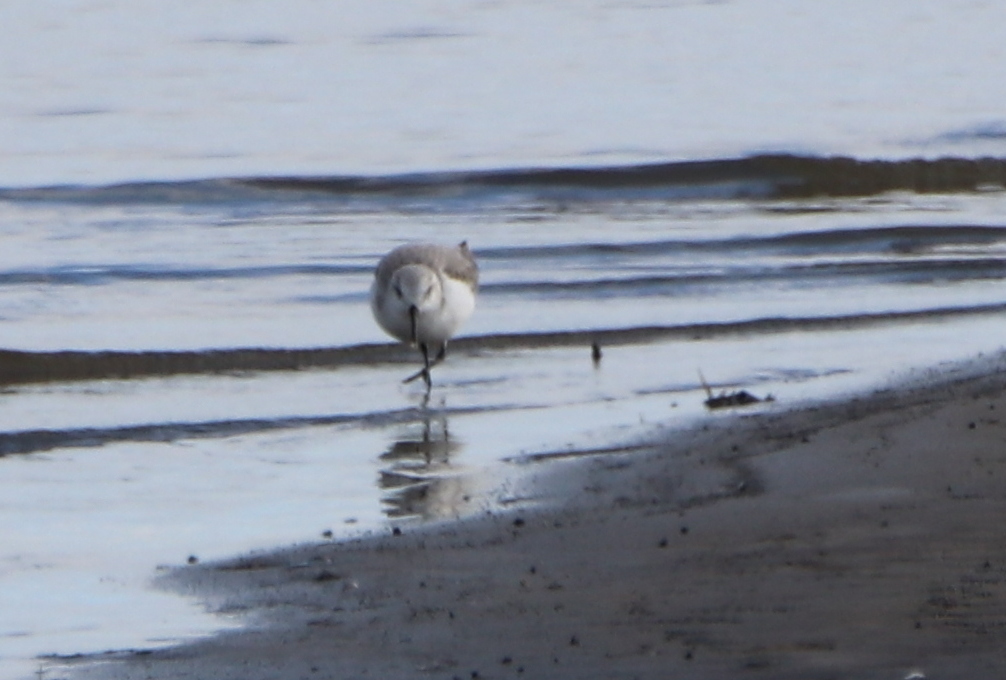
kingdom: Animalia
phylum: Chordata
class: Aves
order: Charadriiformes
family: Scolopacidae
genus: Calidris
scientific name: Calidris alba
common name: Sanderling
